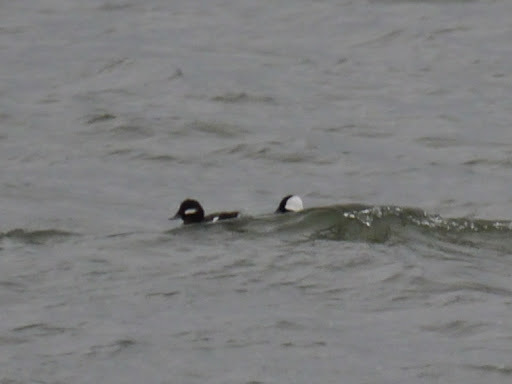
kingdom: Animalia
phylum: Chordata
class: Aves
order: Anseriformes
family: Anatidae
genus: Bucephala
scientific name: Bucephala albeola
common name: Bufflehead
